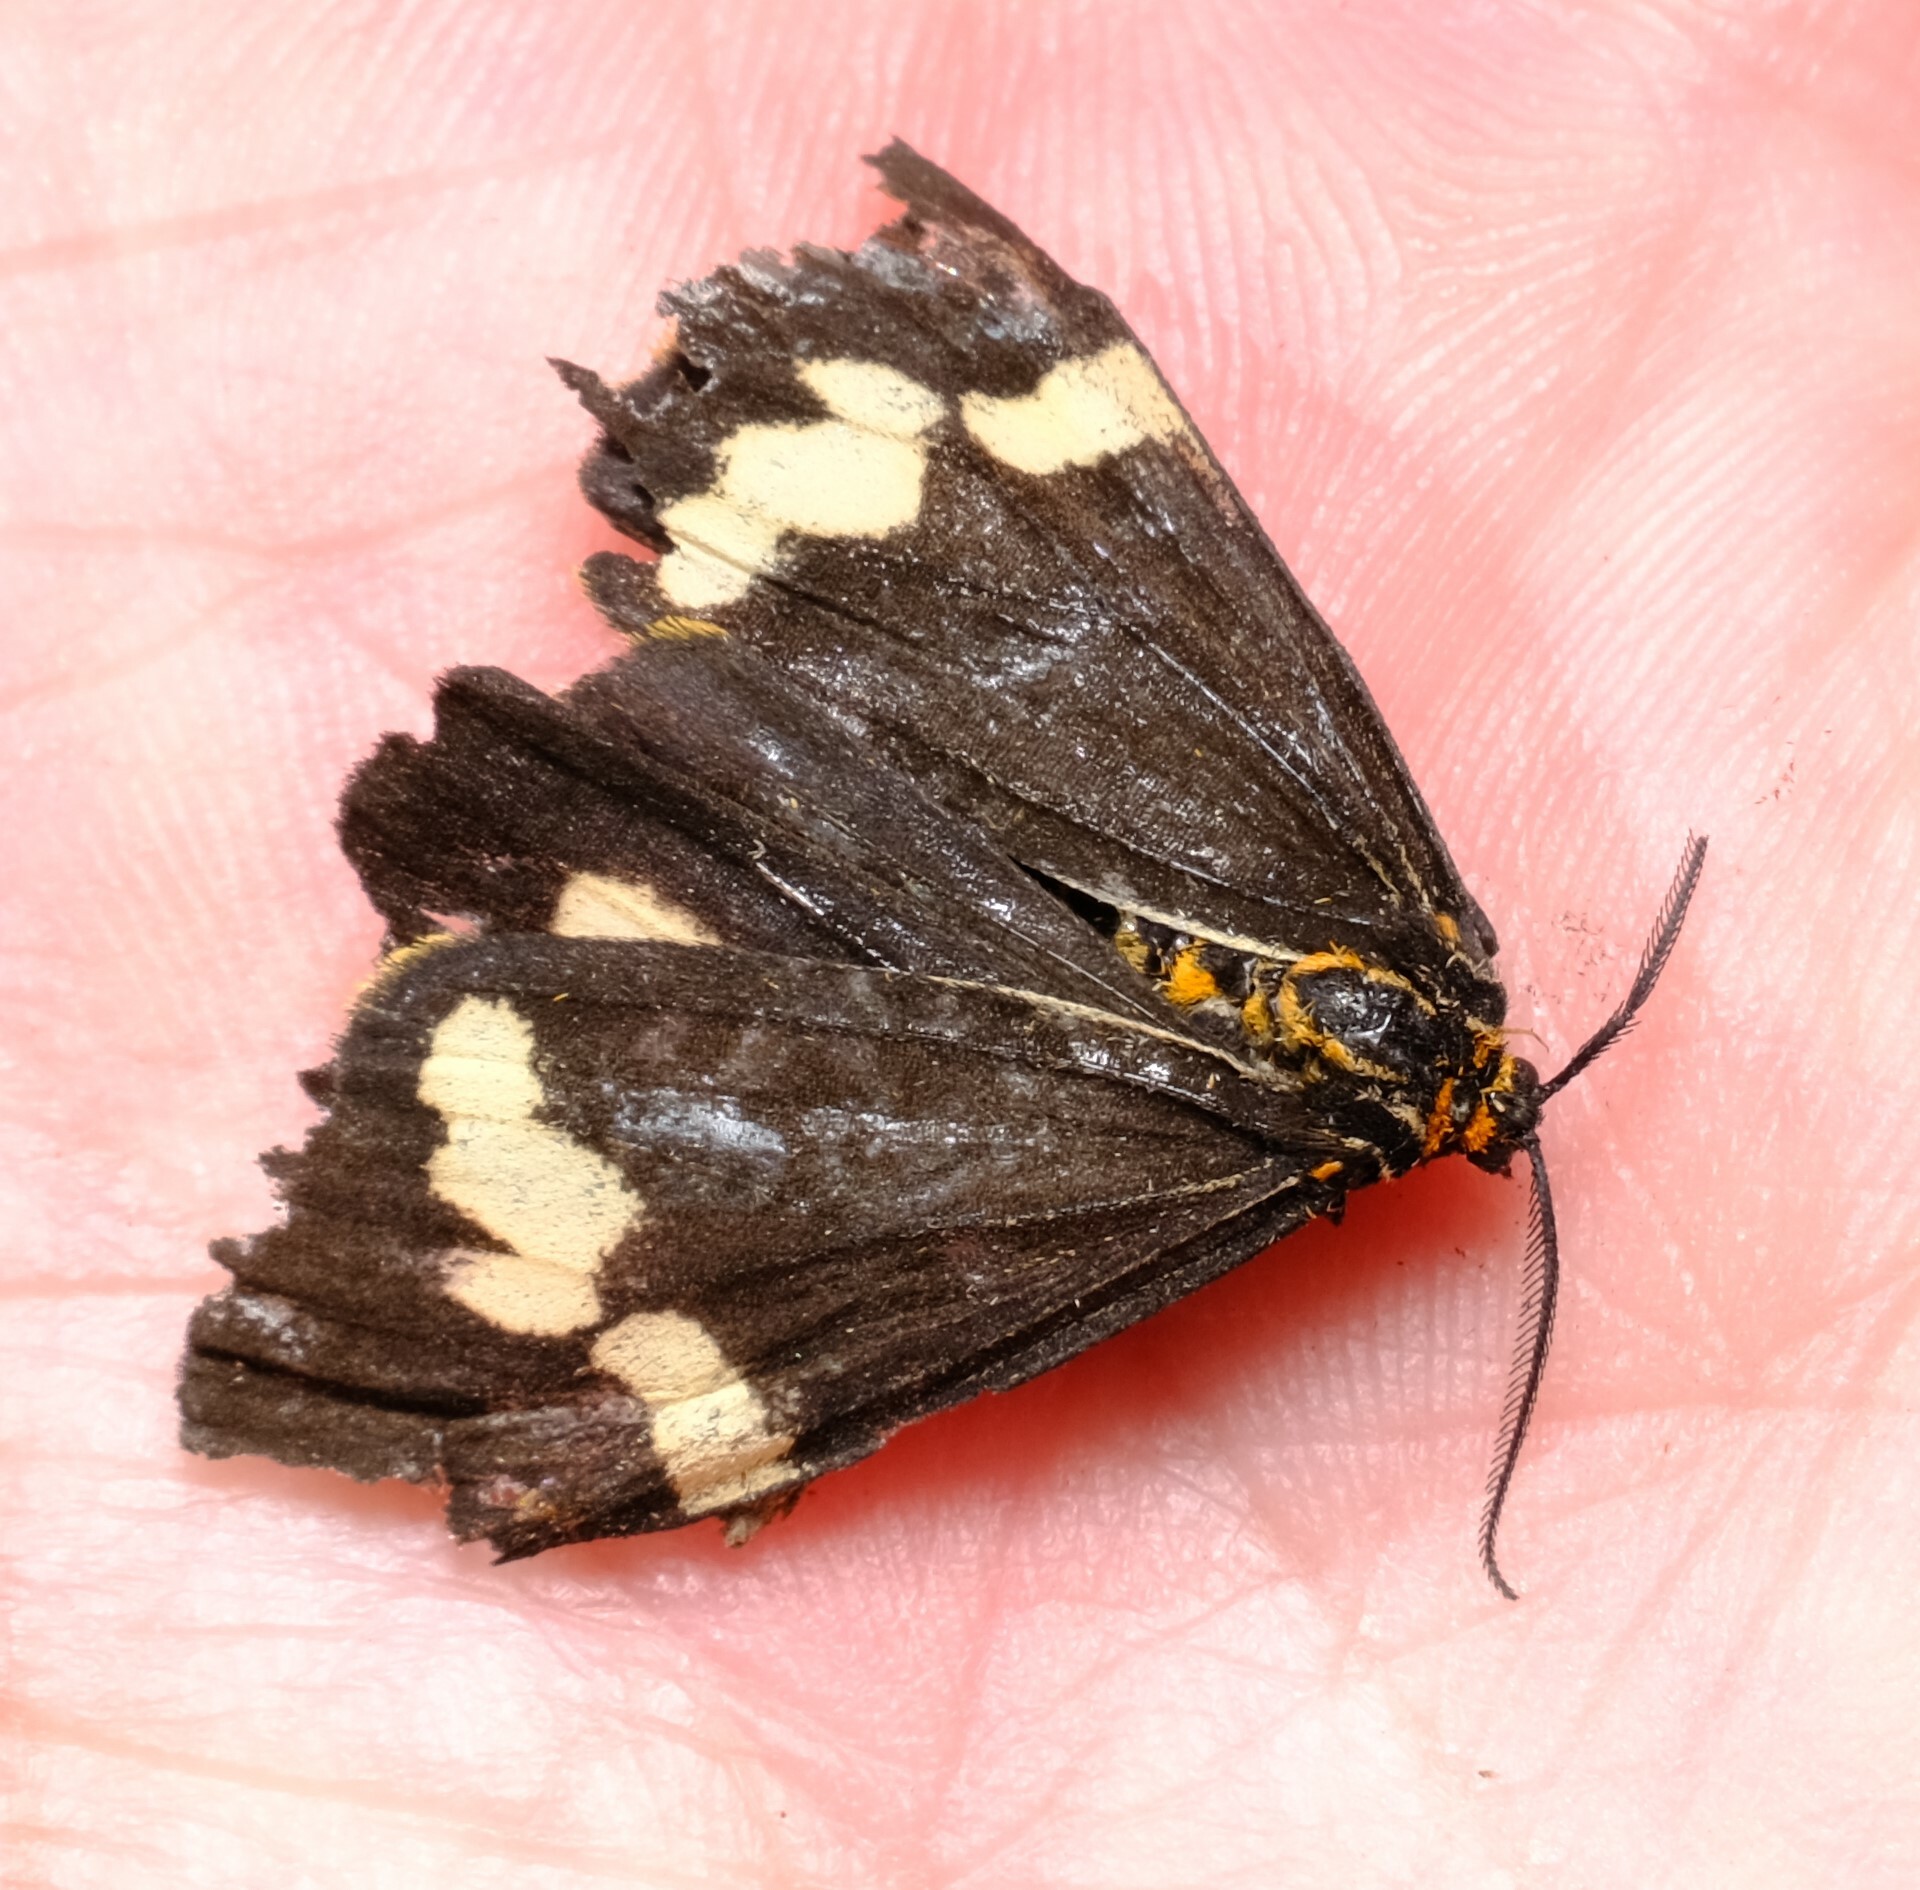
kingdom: Animalia
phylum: Arthropoda
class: Insecta
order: Lepidoptera
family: Erebidae
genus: Nyctemera
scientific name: Nyctemera amicus
